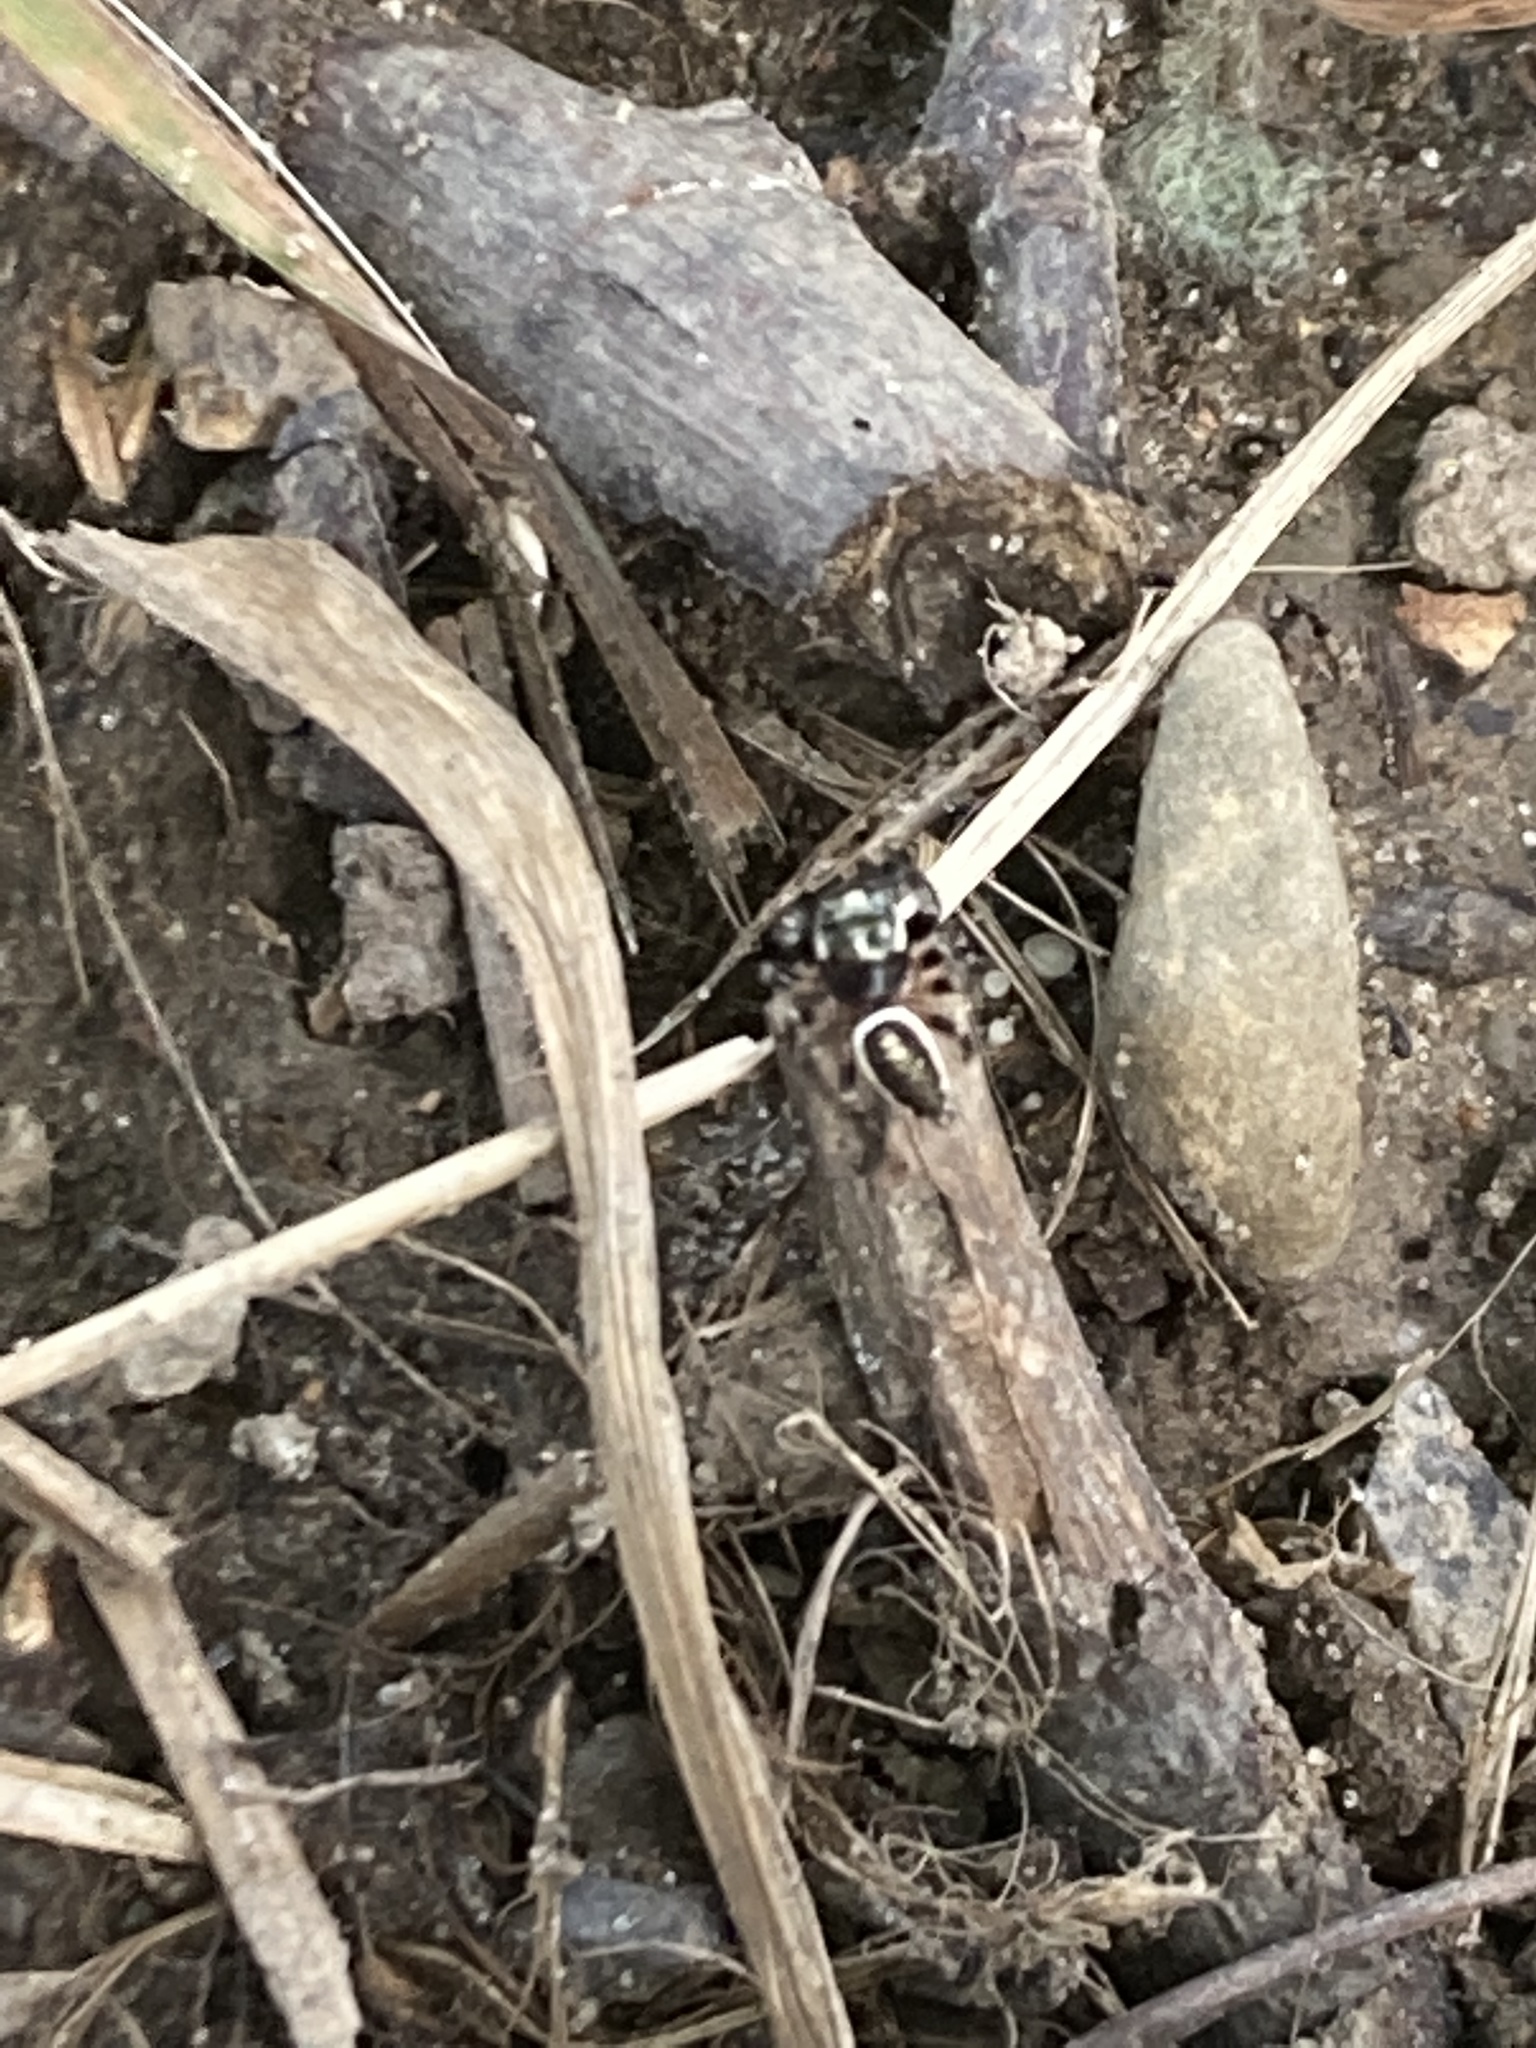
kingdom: Animalia
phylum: Arthropoda
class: Arachnida
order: Araneae
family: Salticidae
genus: Eris
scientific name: Eris militaris
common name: Bronze jumper
